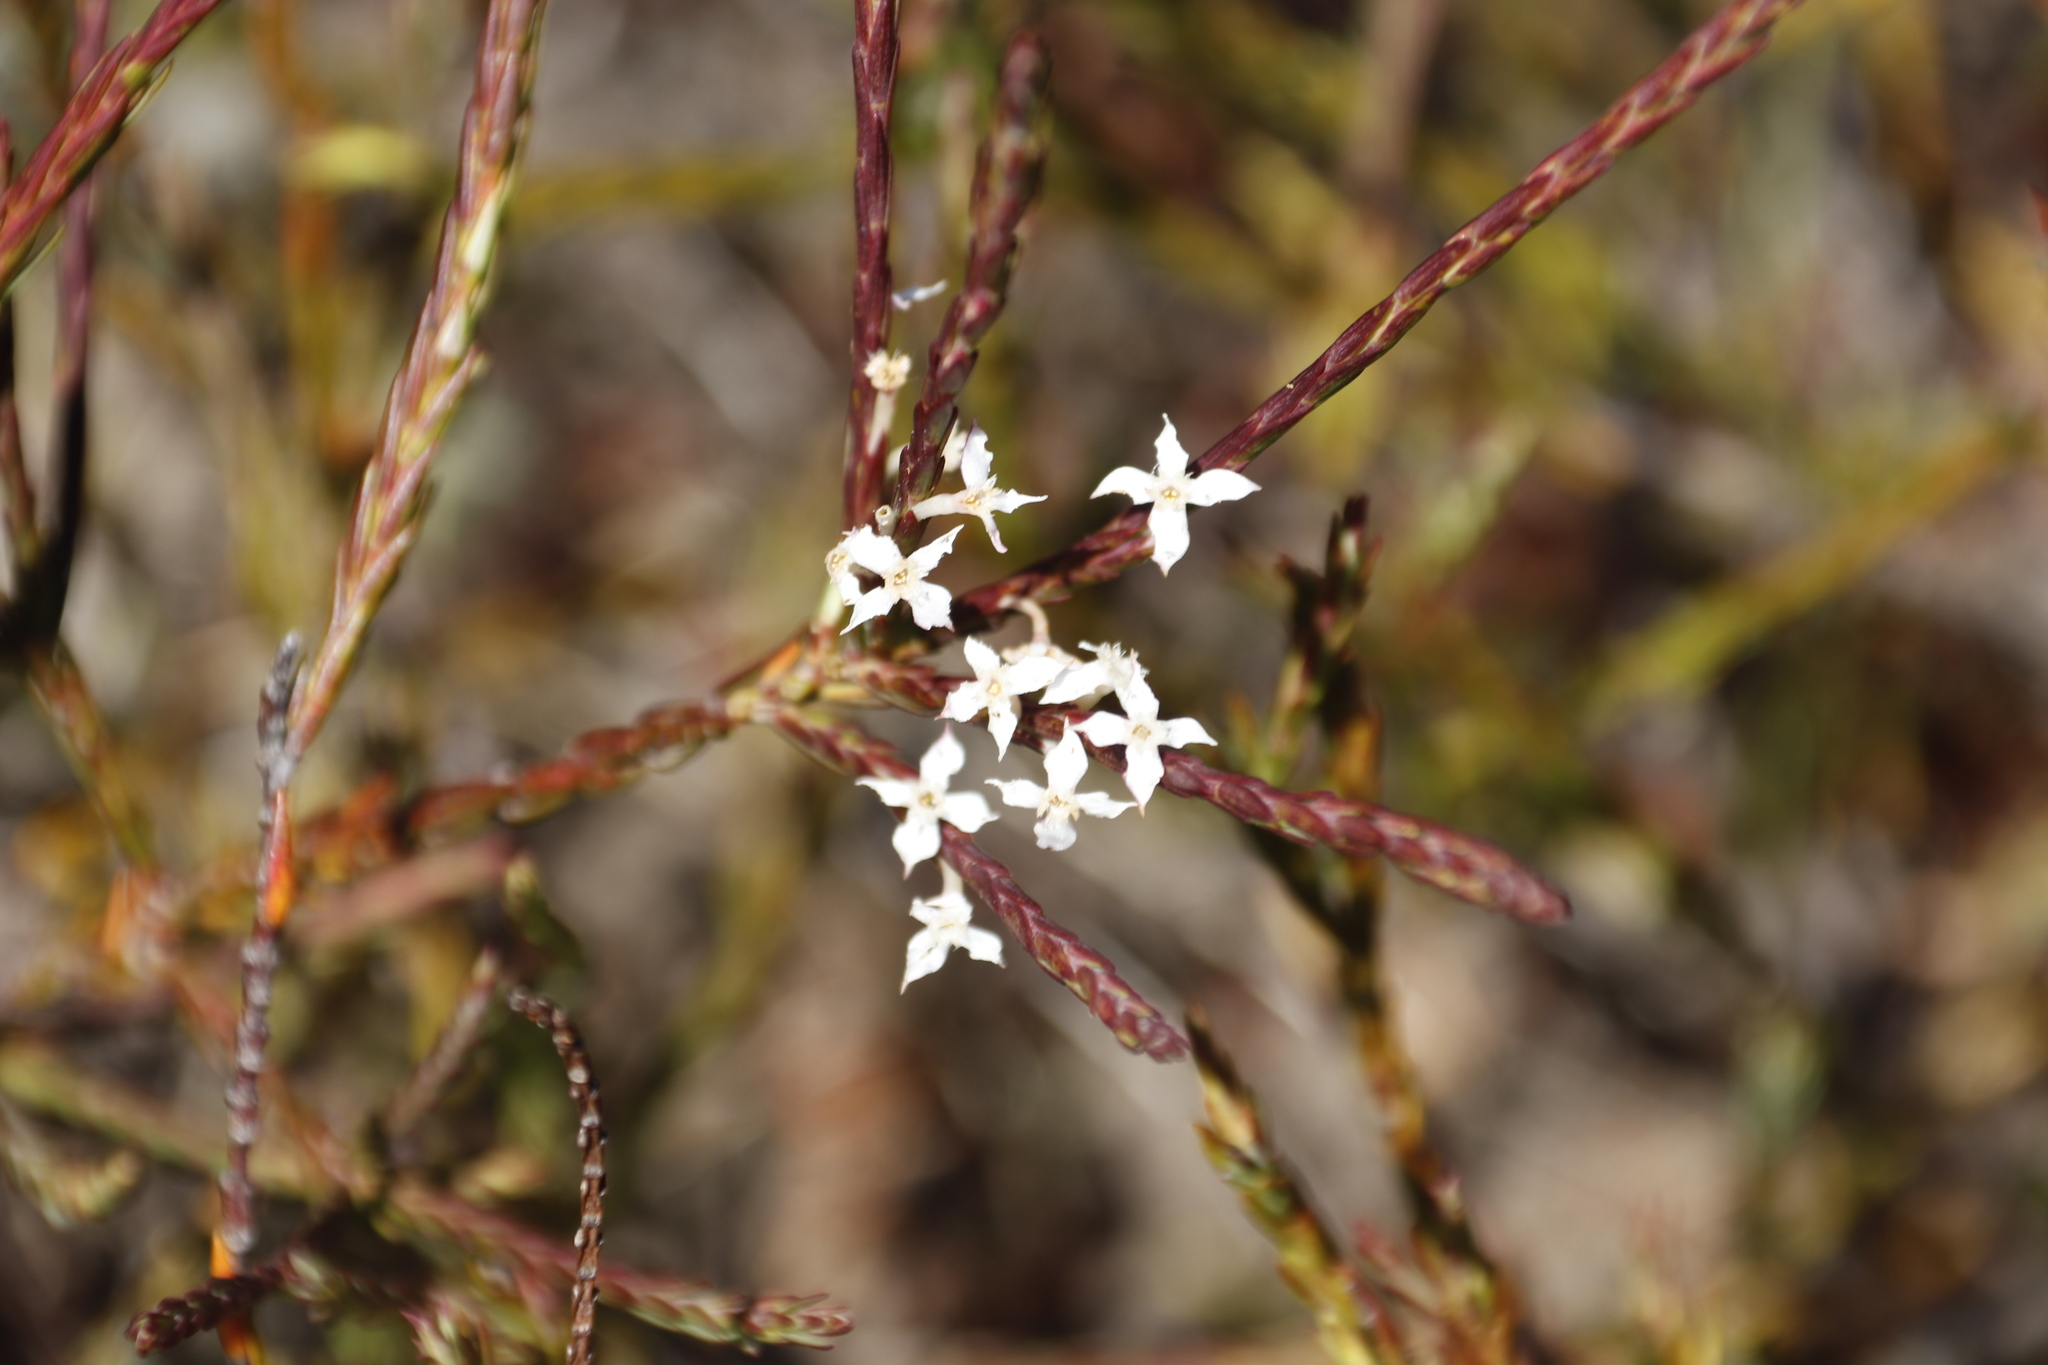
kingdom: Plantae
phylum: Tracheophyta
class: Magnoliopsida
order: Malvales
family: Thymelaeaceae
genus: Struthiola
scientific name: Struthiola dodecandra
